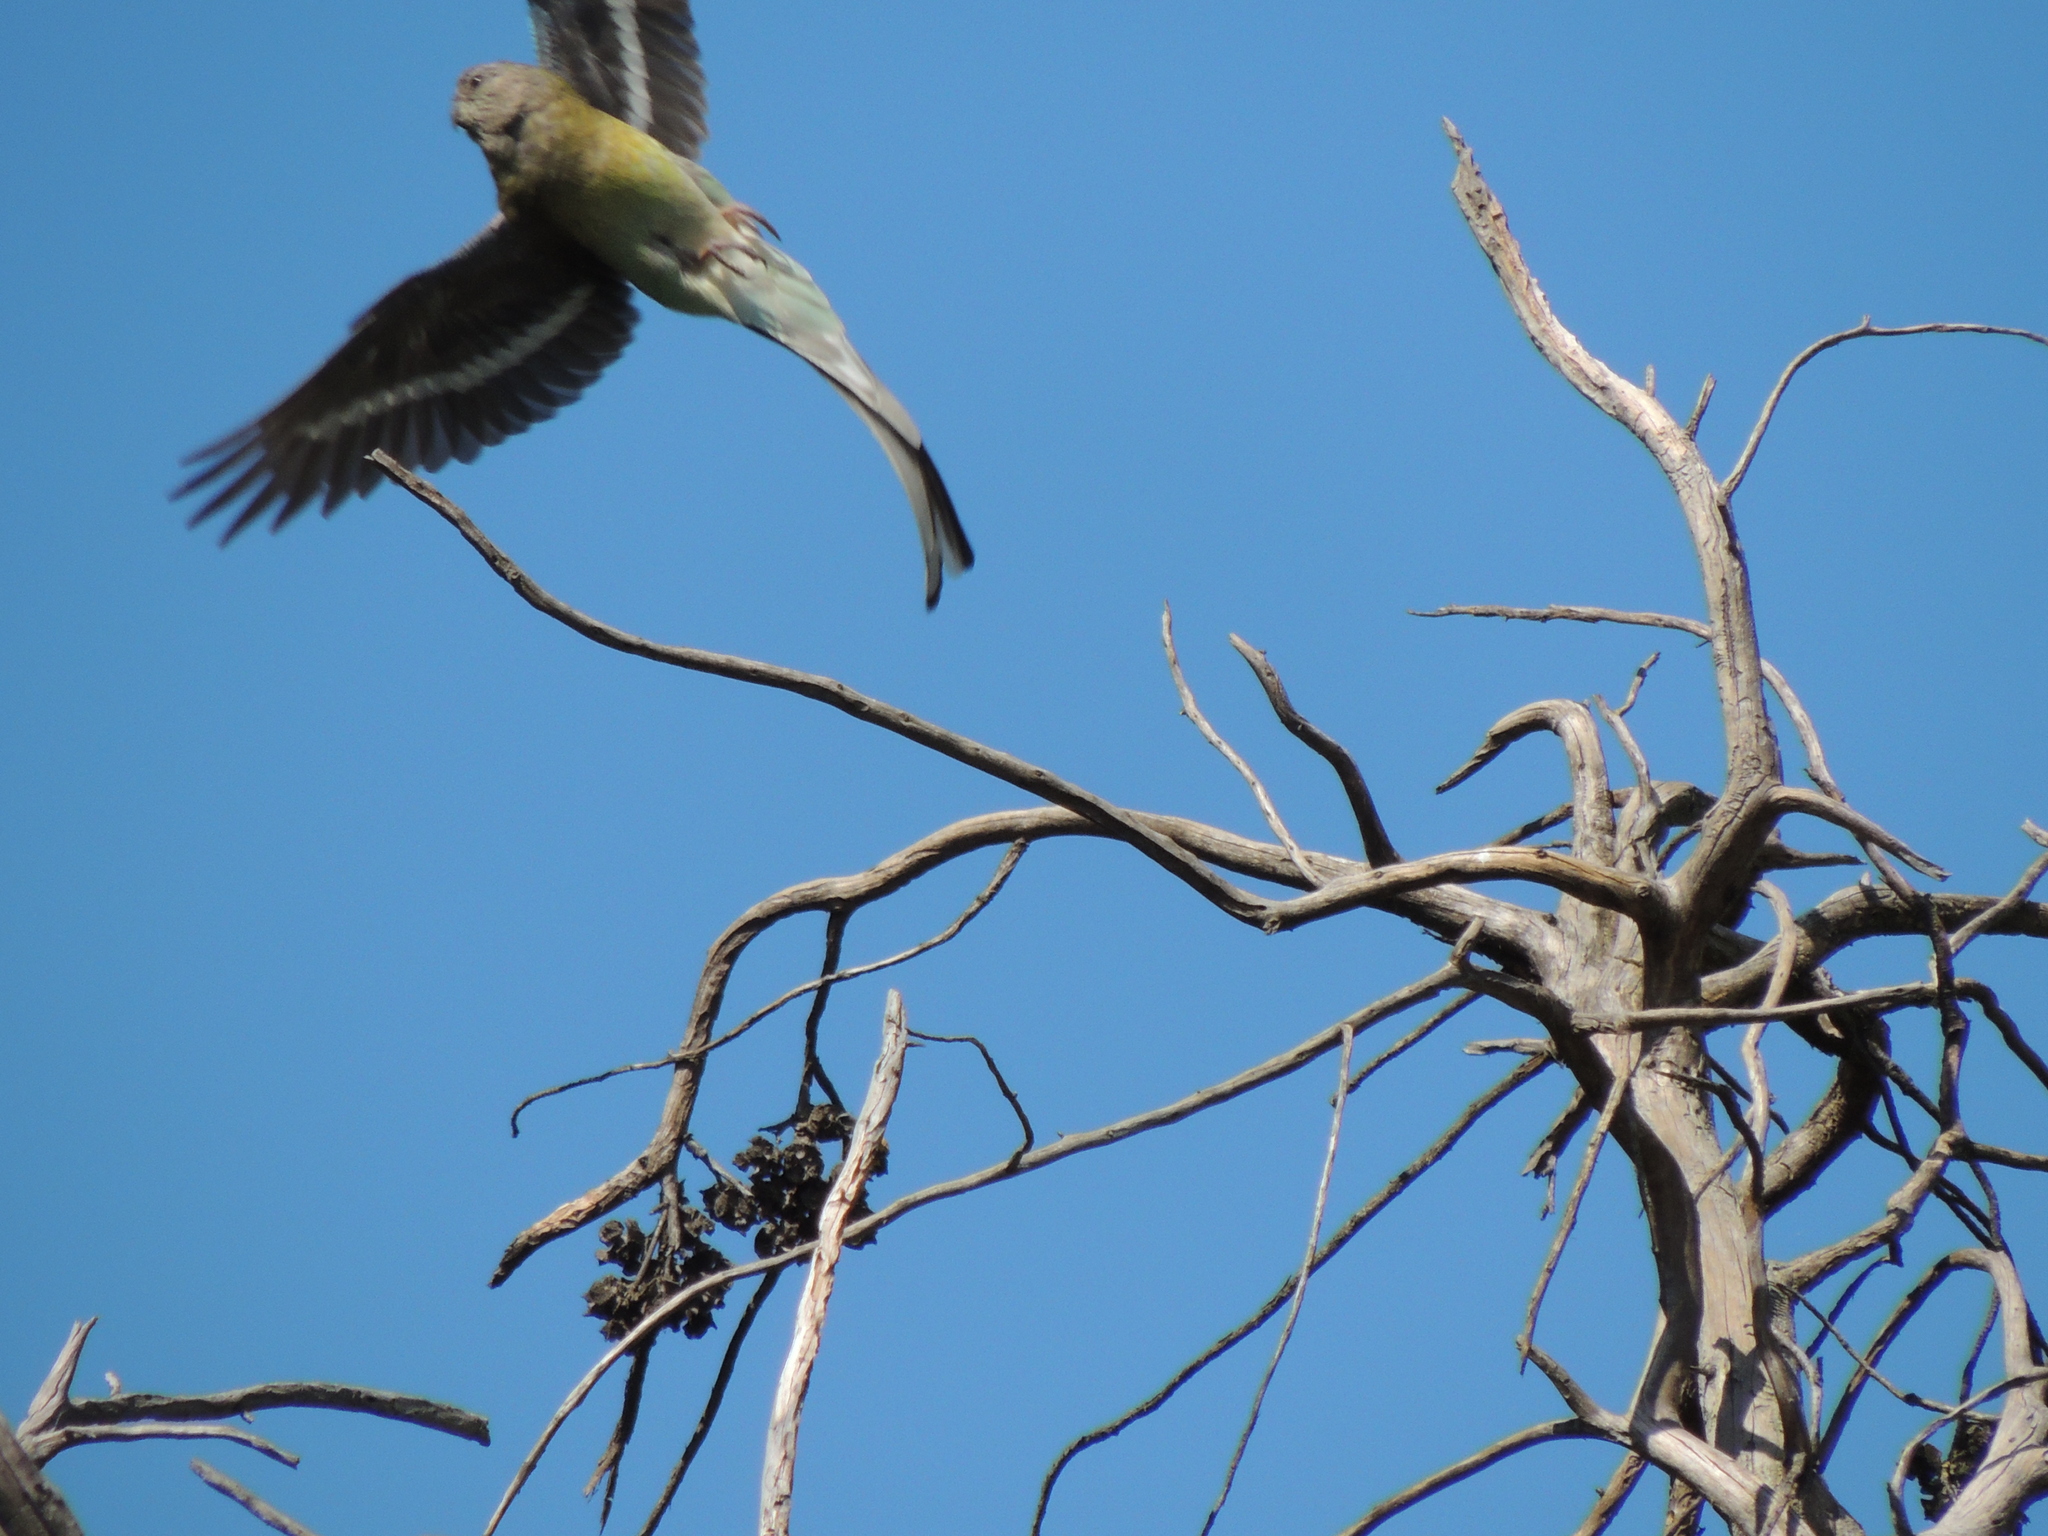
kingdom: Animalia
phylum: Chordata
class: Aves
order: Psittaciformes
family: Psittacidae
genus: Psephotus
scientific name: Psephotus haematonotus
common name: Red-rumped parrot
